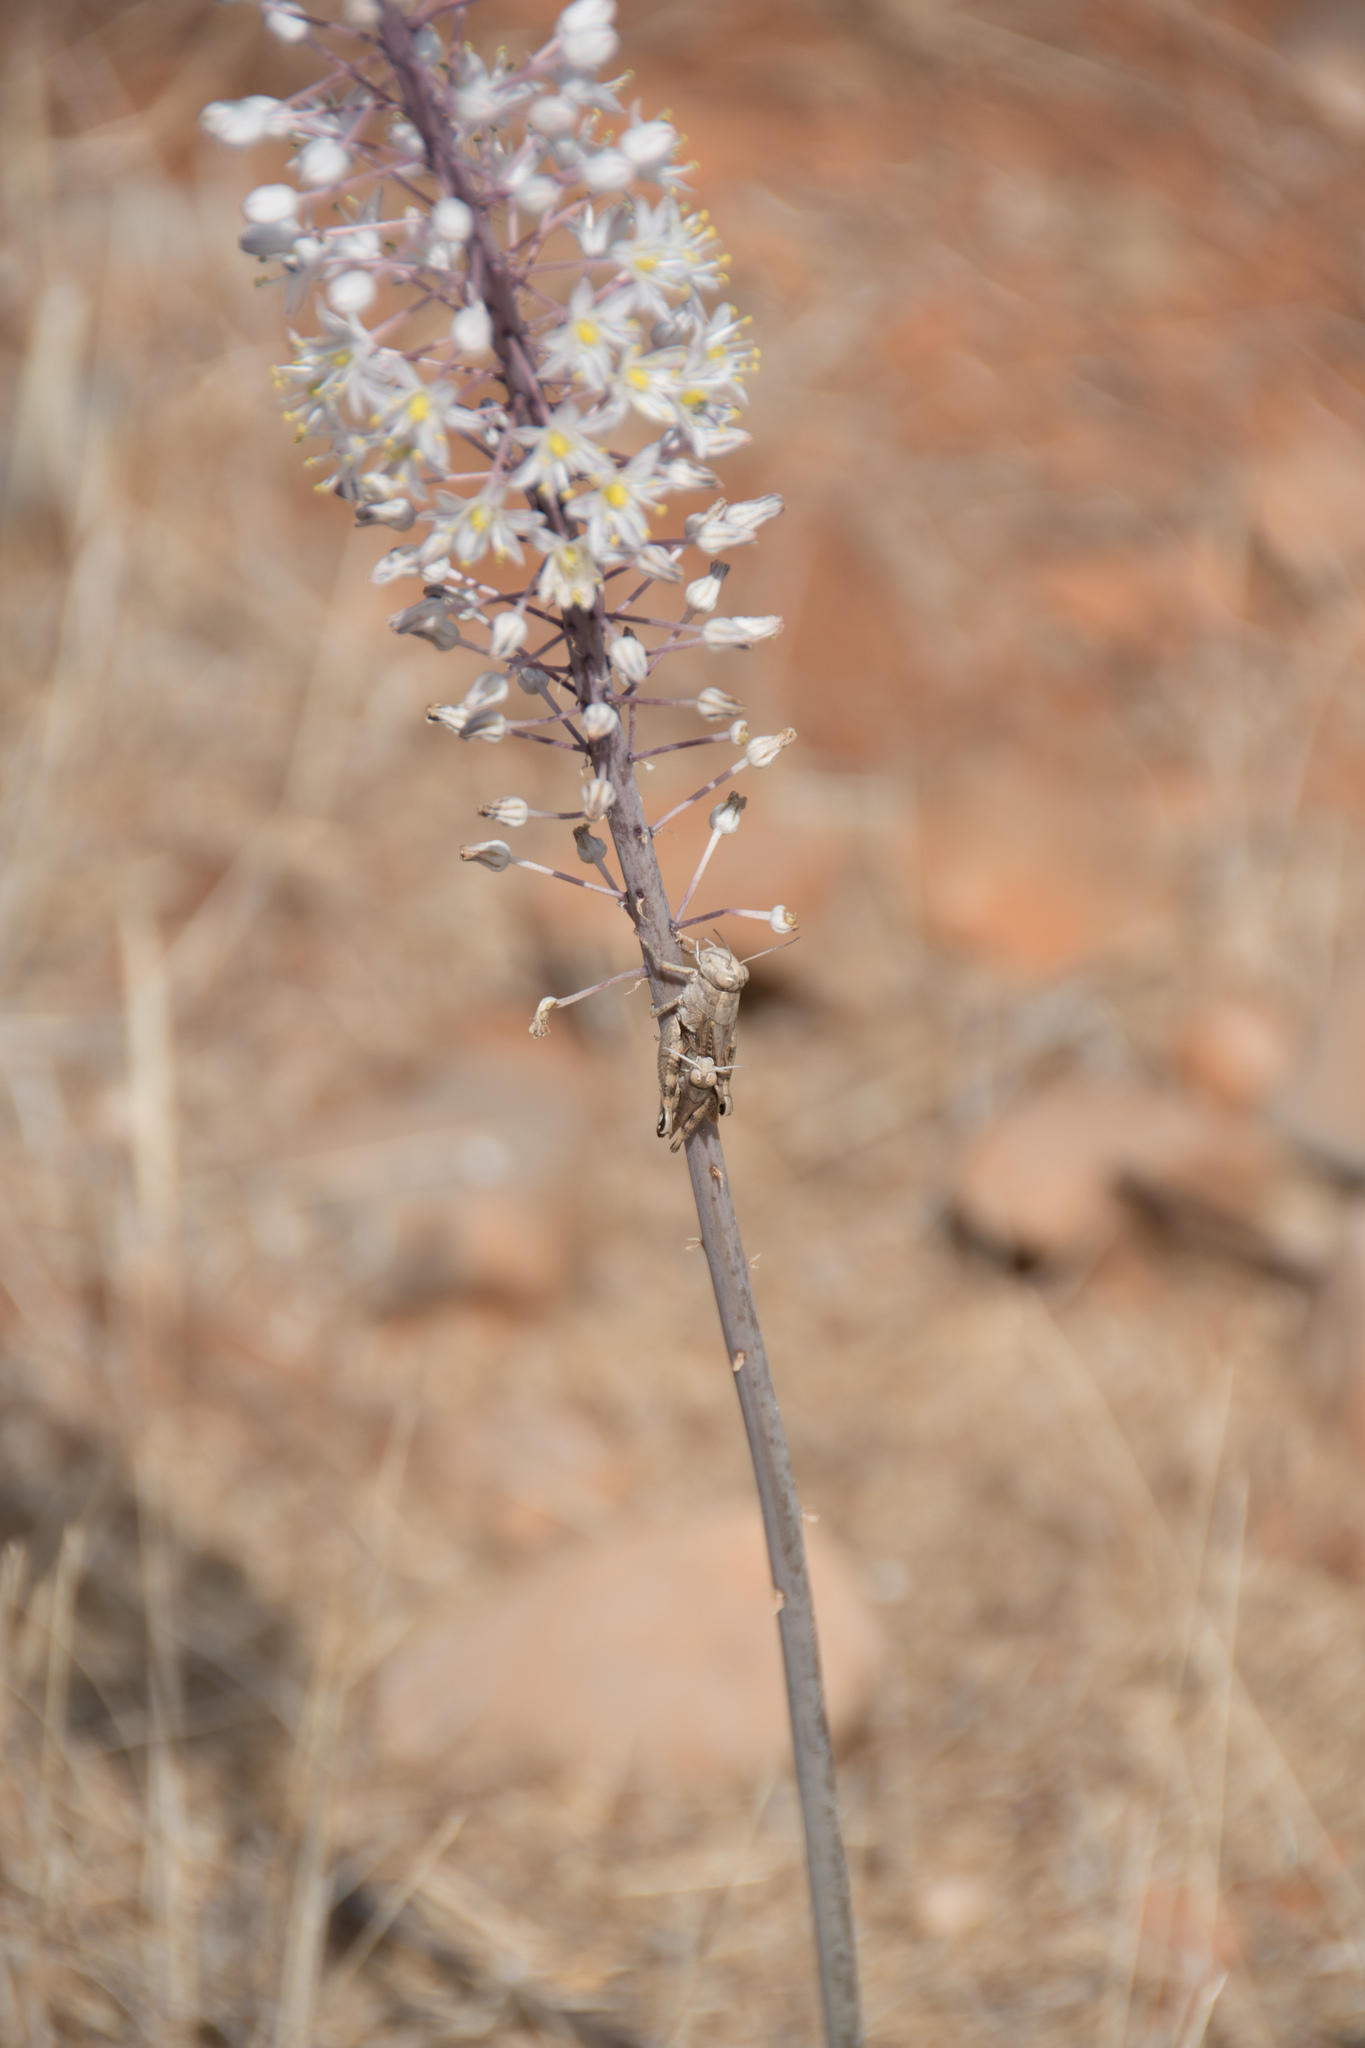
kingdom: Animalia
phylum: Arthropoda
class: Insecta
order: Orthoptera
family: Acrididae
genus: Calliptamus
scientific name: Calliptamus
